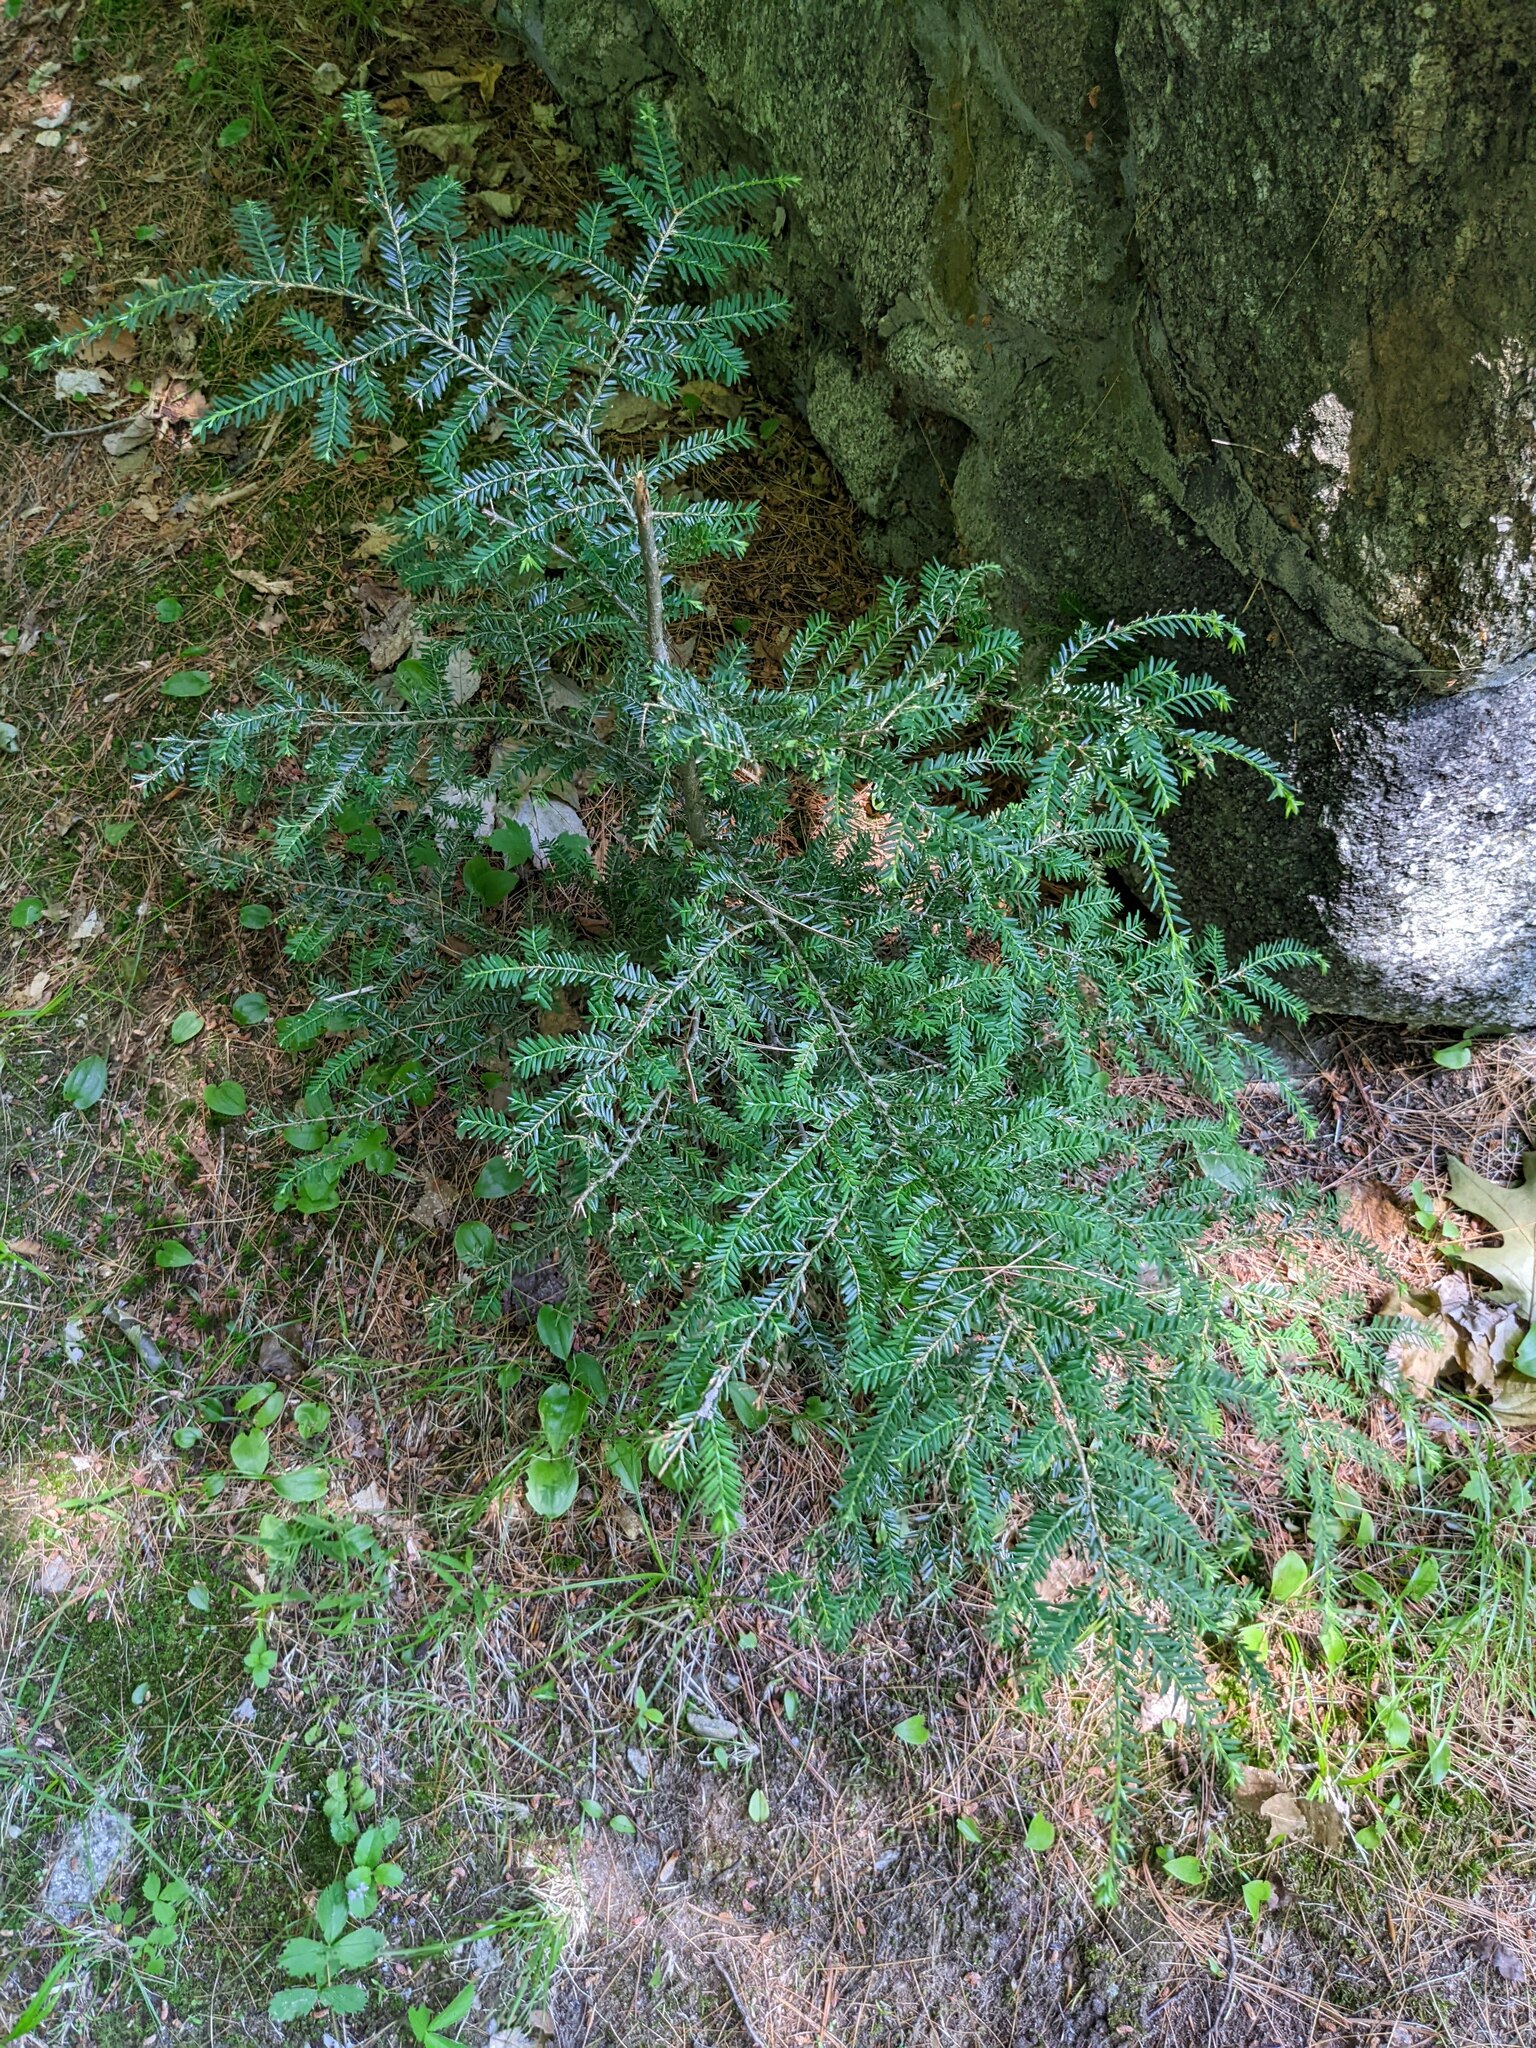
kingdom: Plantae
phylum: Tracheophyta
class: Pinopsida
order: Pinales
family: Pinaceae
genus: Tsuga
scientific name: Tsuga canadensis
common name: Eastern hemlock
